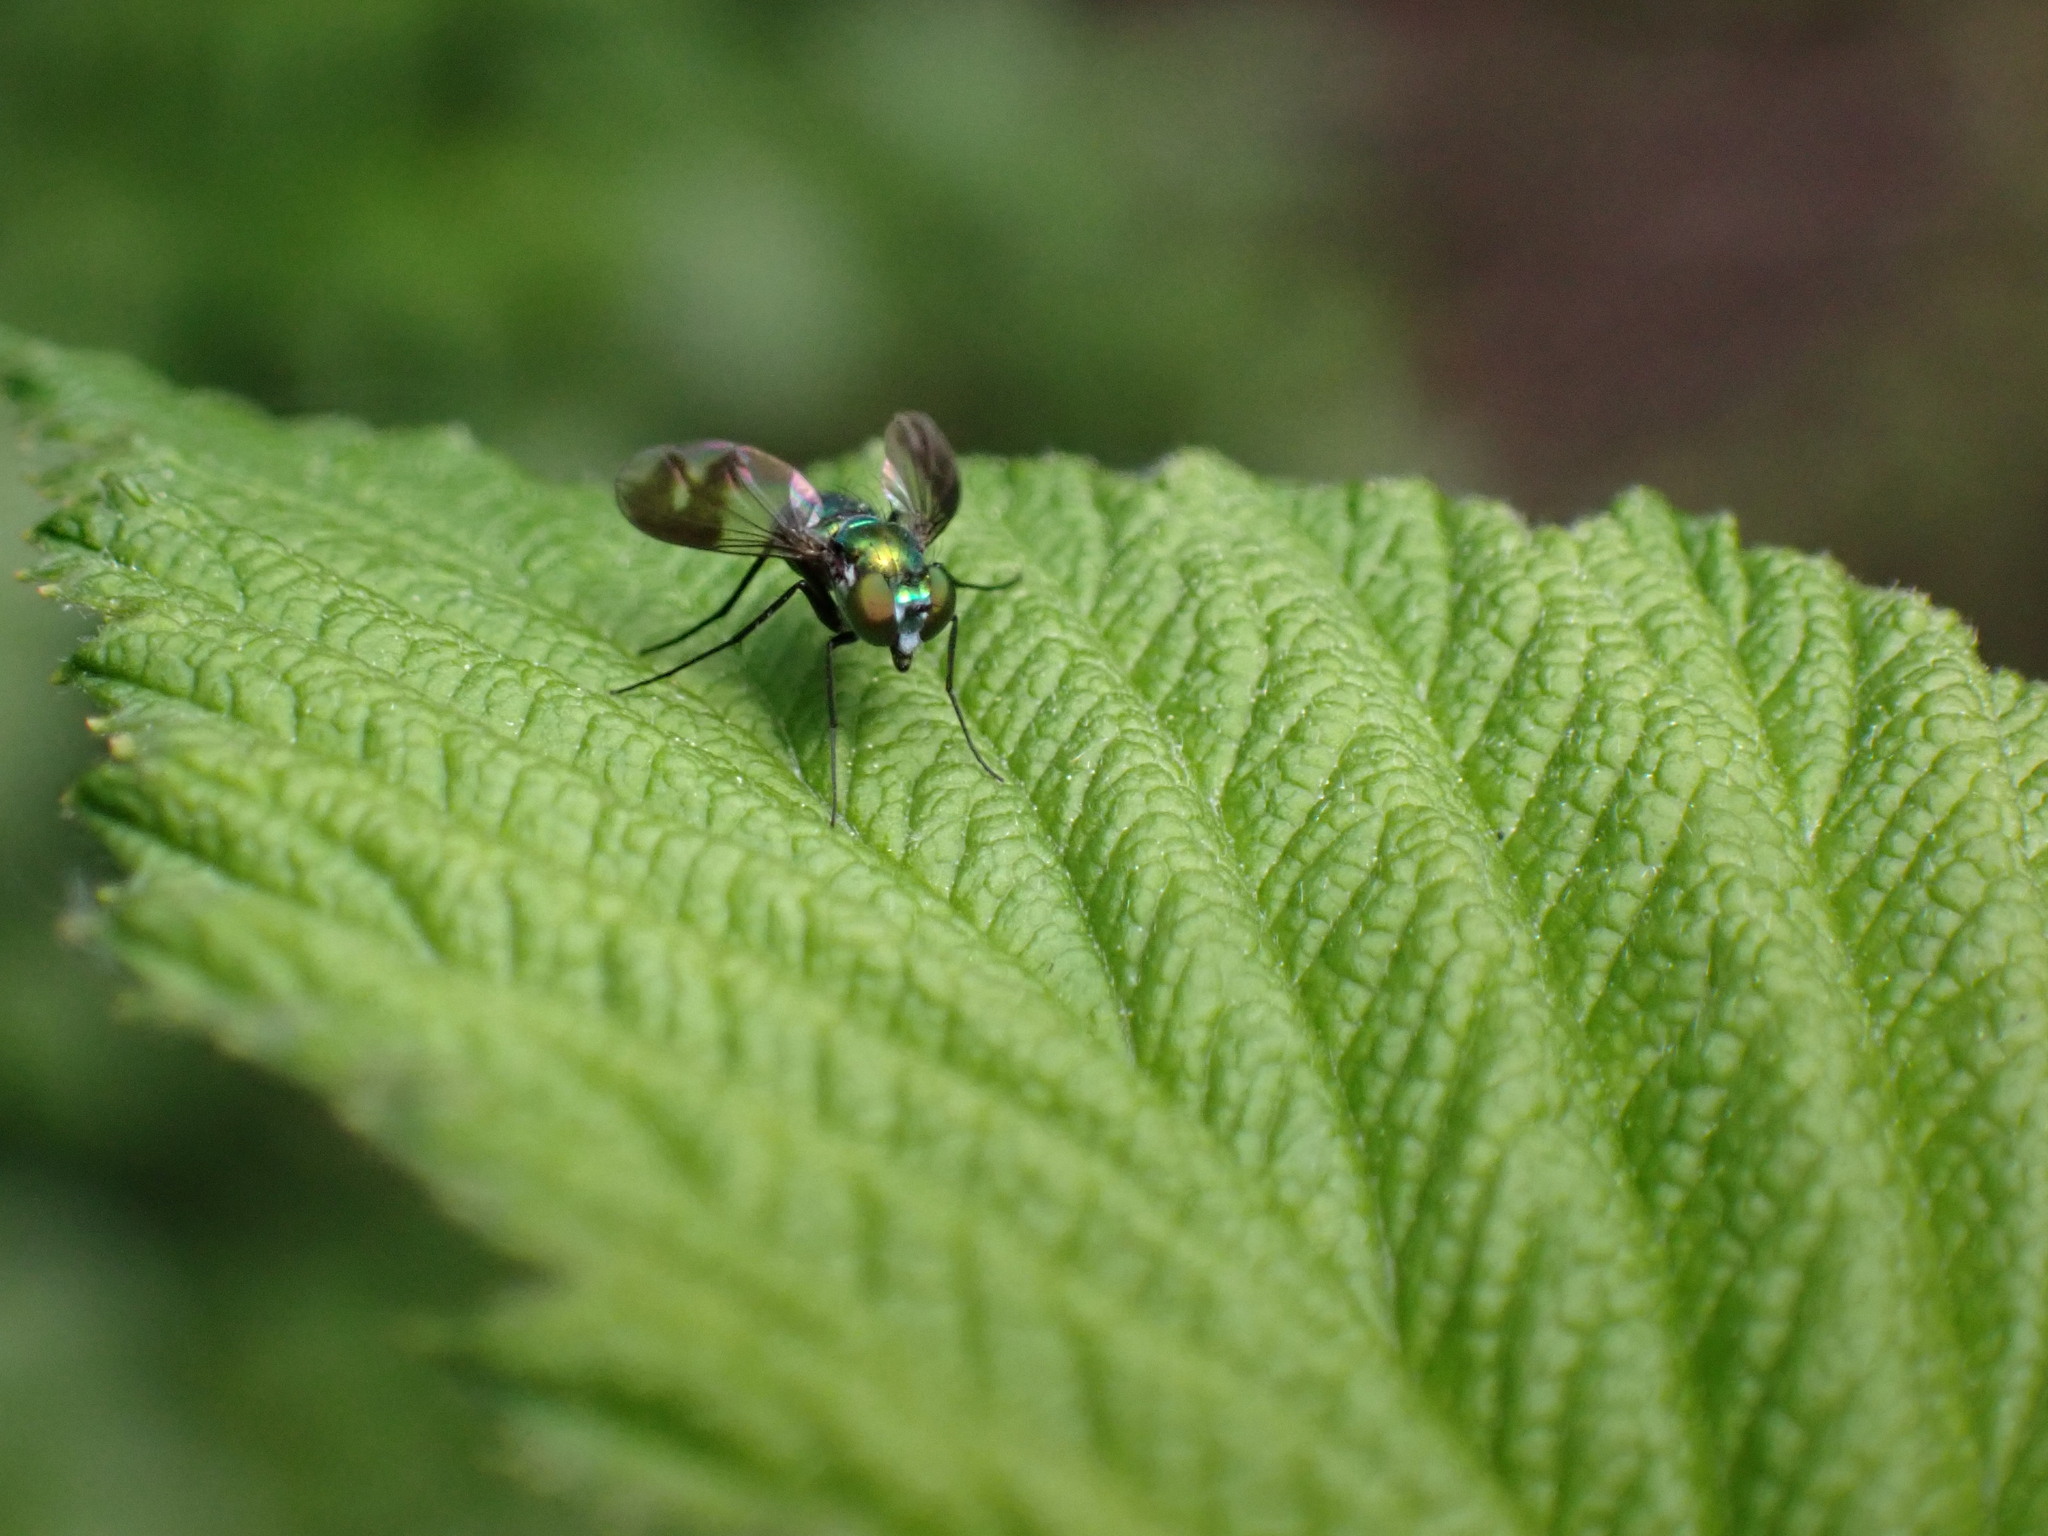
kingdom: Animalia
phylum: Arthropoda
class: Insecta
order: Diptera
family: Dolichopodidae
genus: Condylostylus
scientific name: Condylostylus patibulatus
